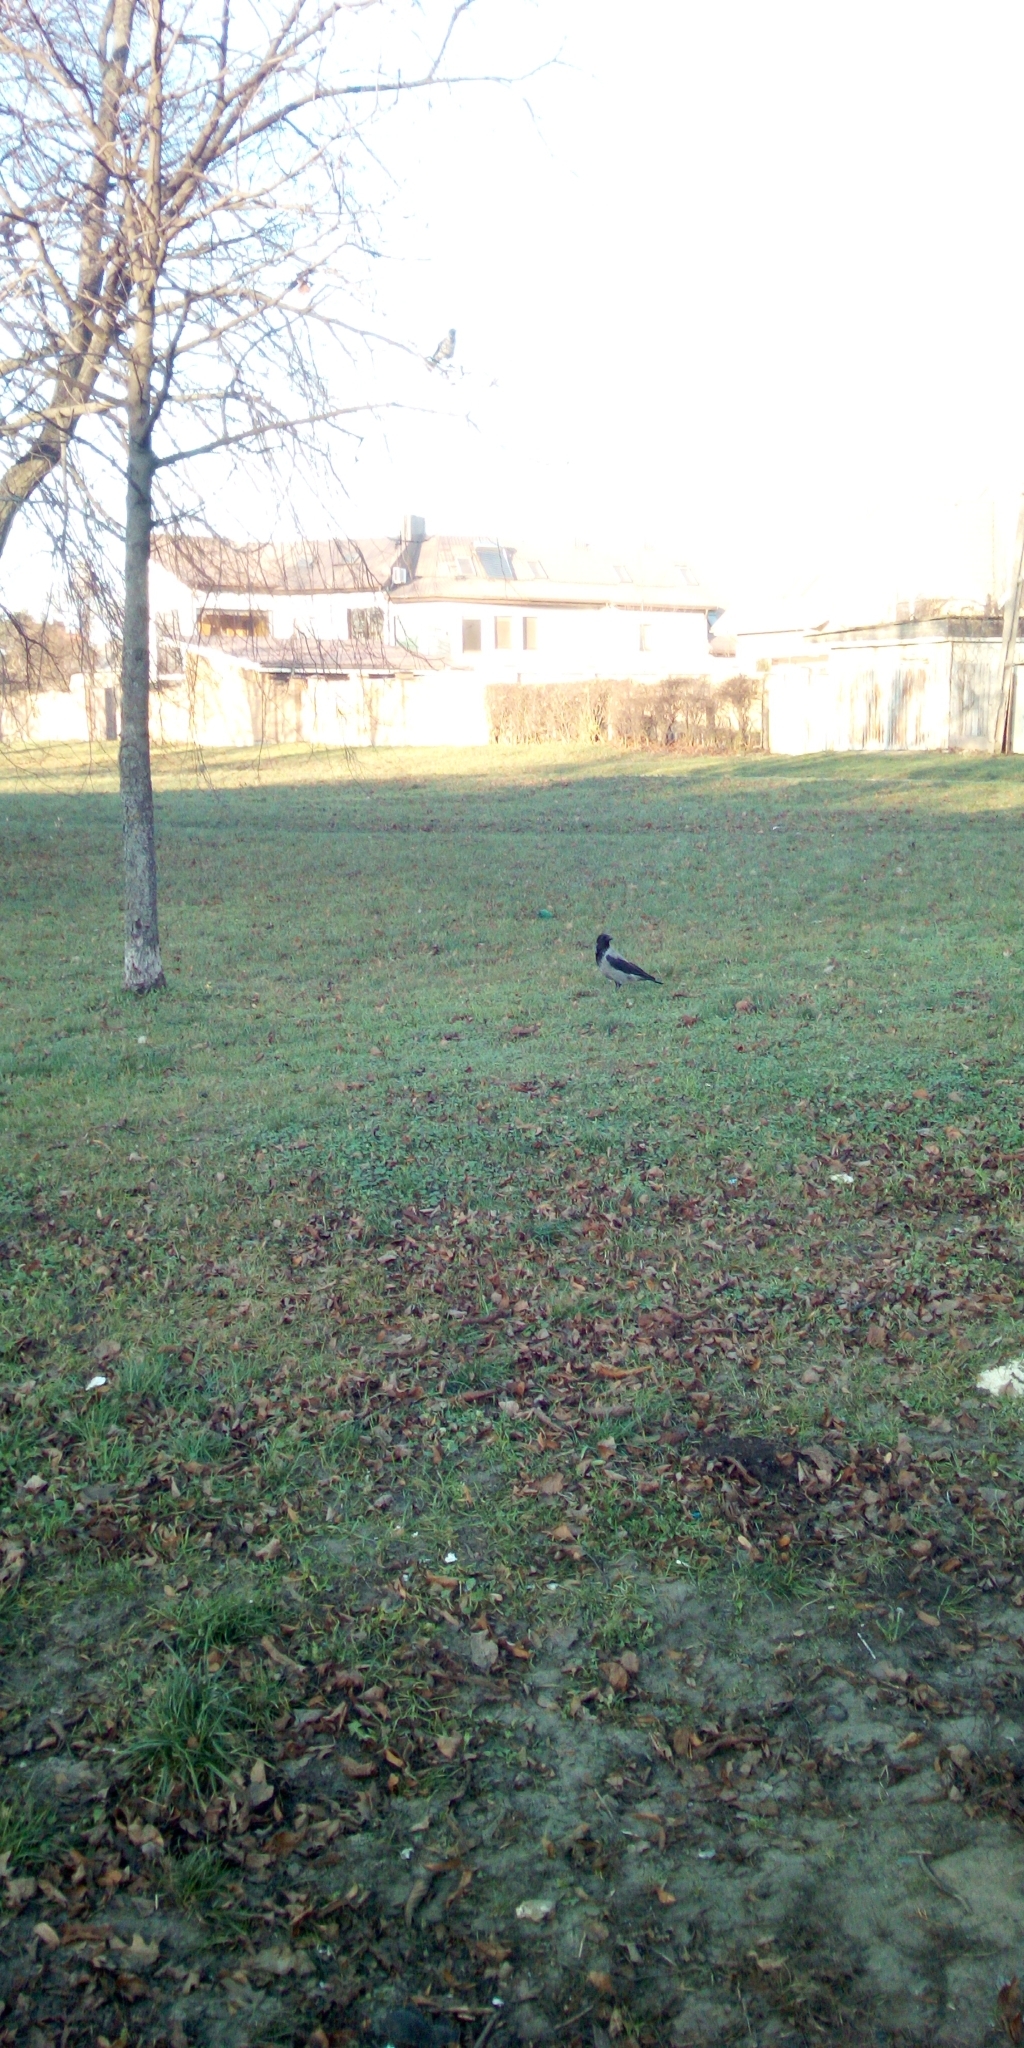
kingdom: Animalia
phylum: Chordata
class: Aves
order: Passeriformes
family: Corvidae
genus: Corvus
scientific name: Corvus cornix
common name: Hooded crow
